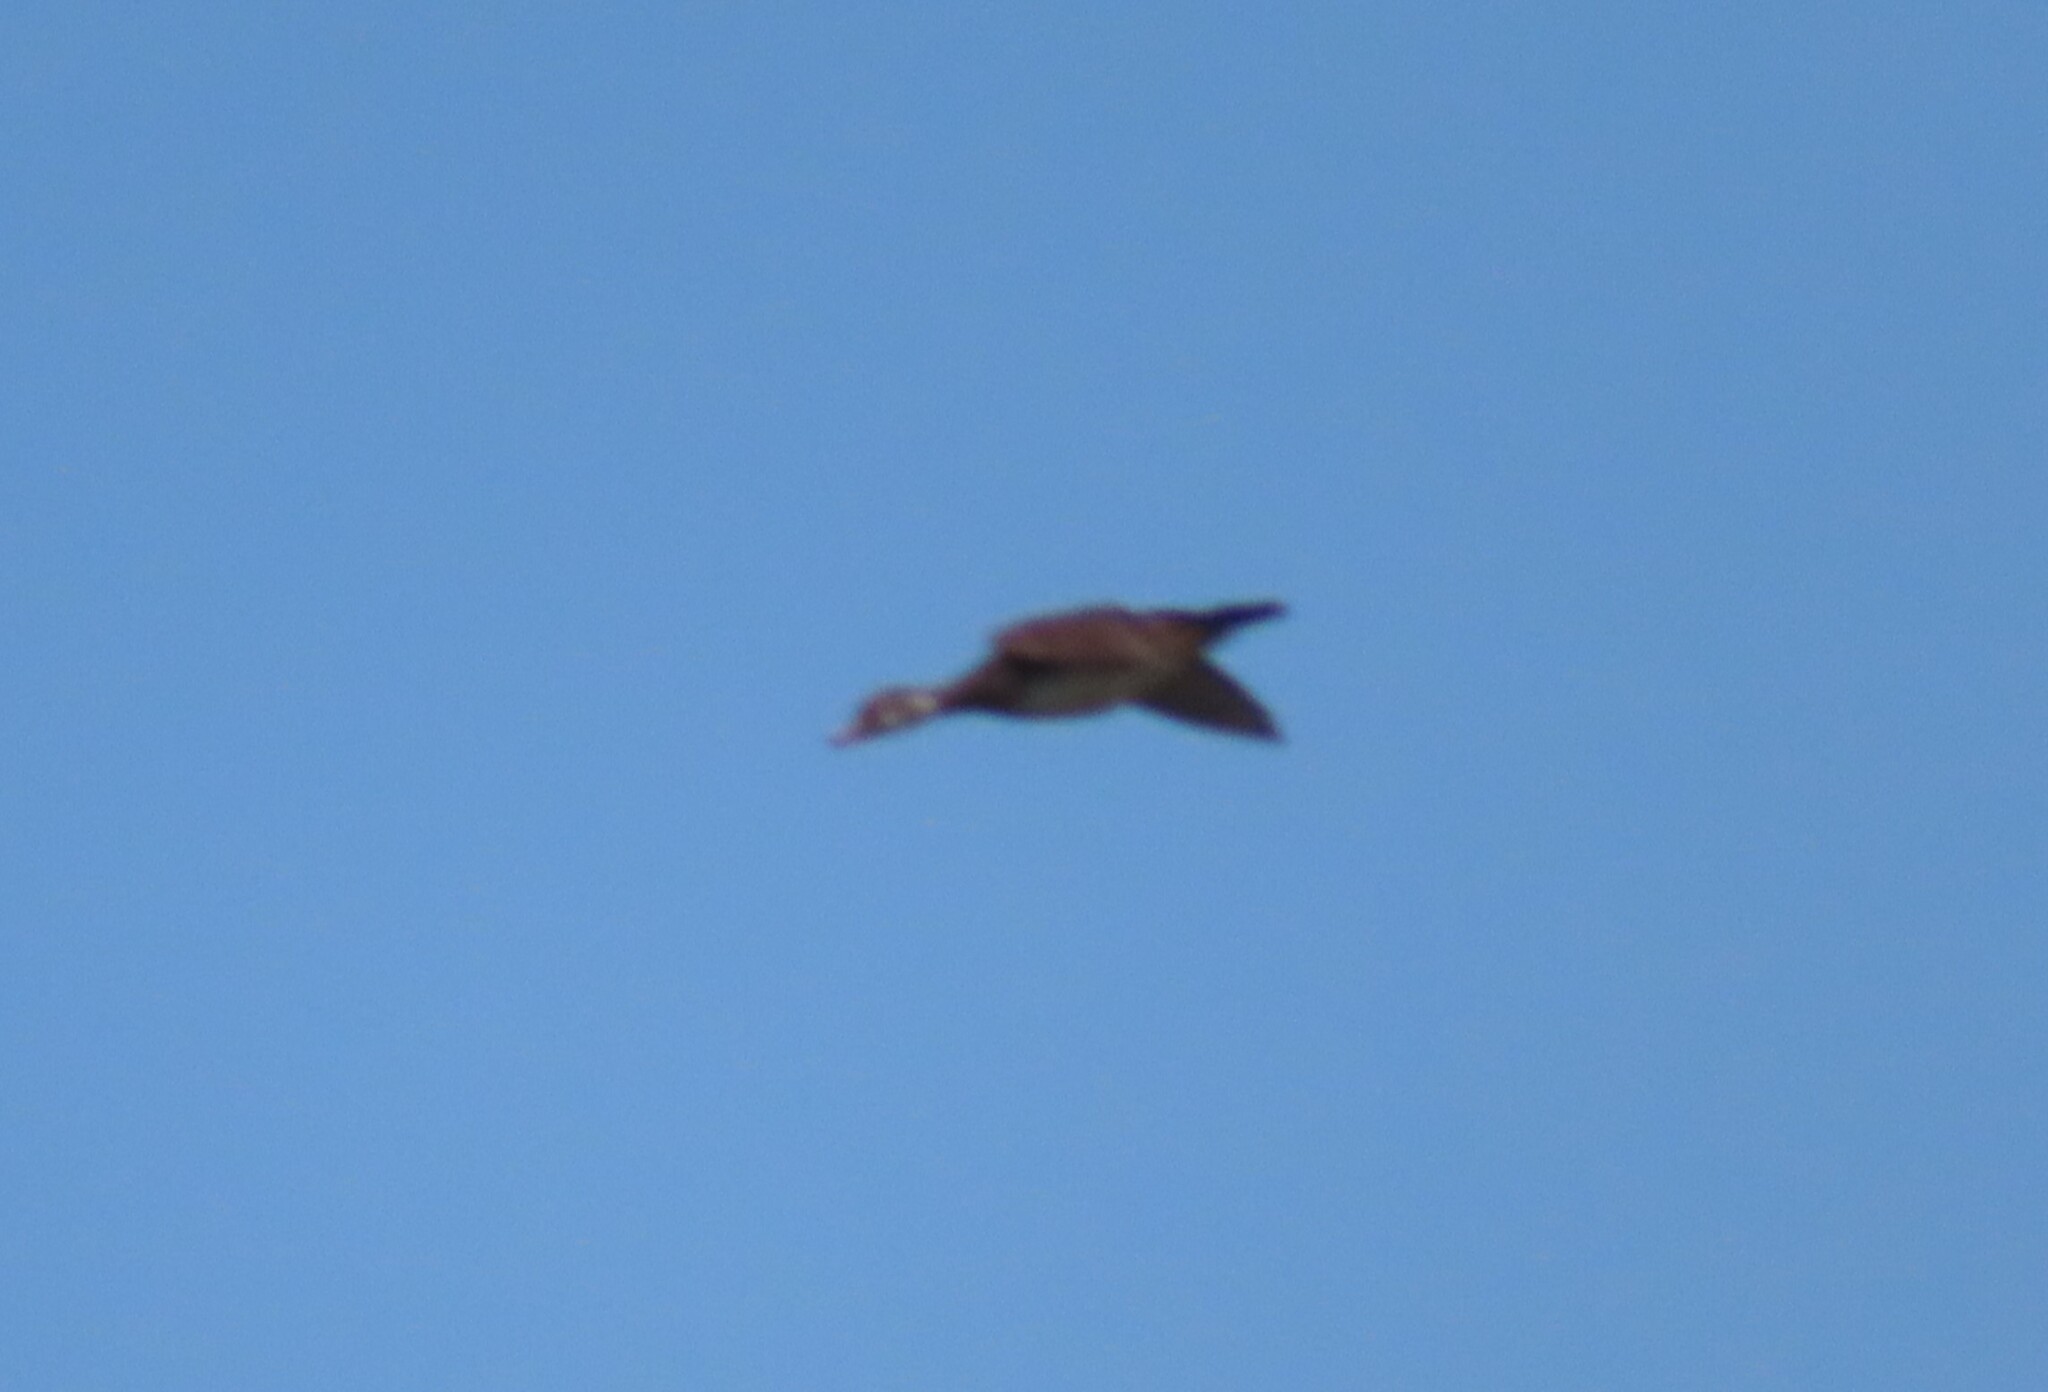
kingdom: Animalia
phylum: Chordata
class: Aves
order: Anseriformes
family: Anatidae
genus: Aix
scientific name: Aix sponsa
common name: Wood duck
